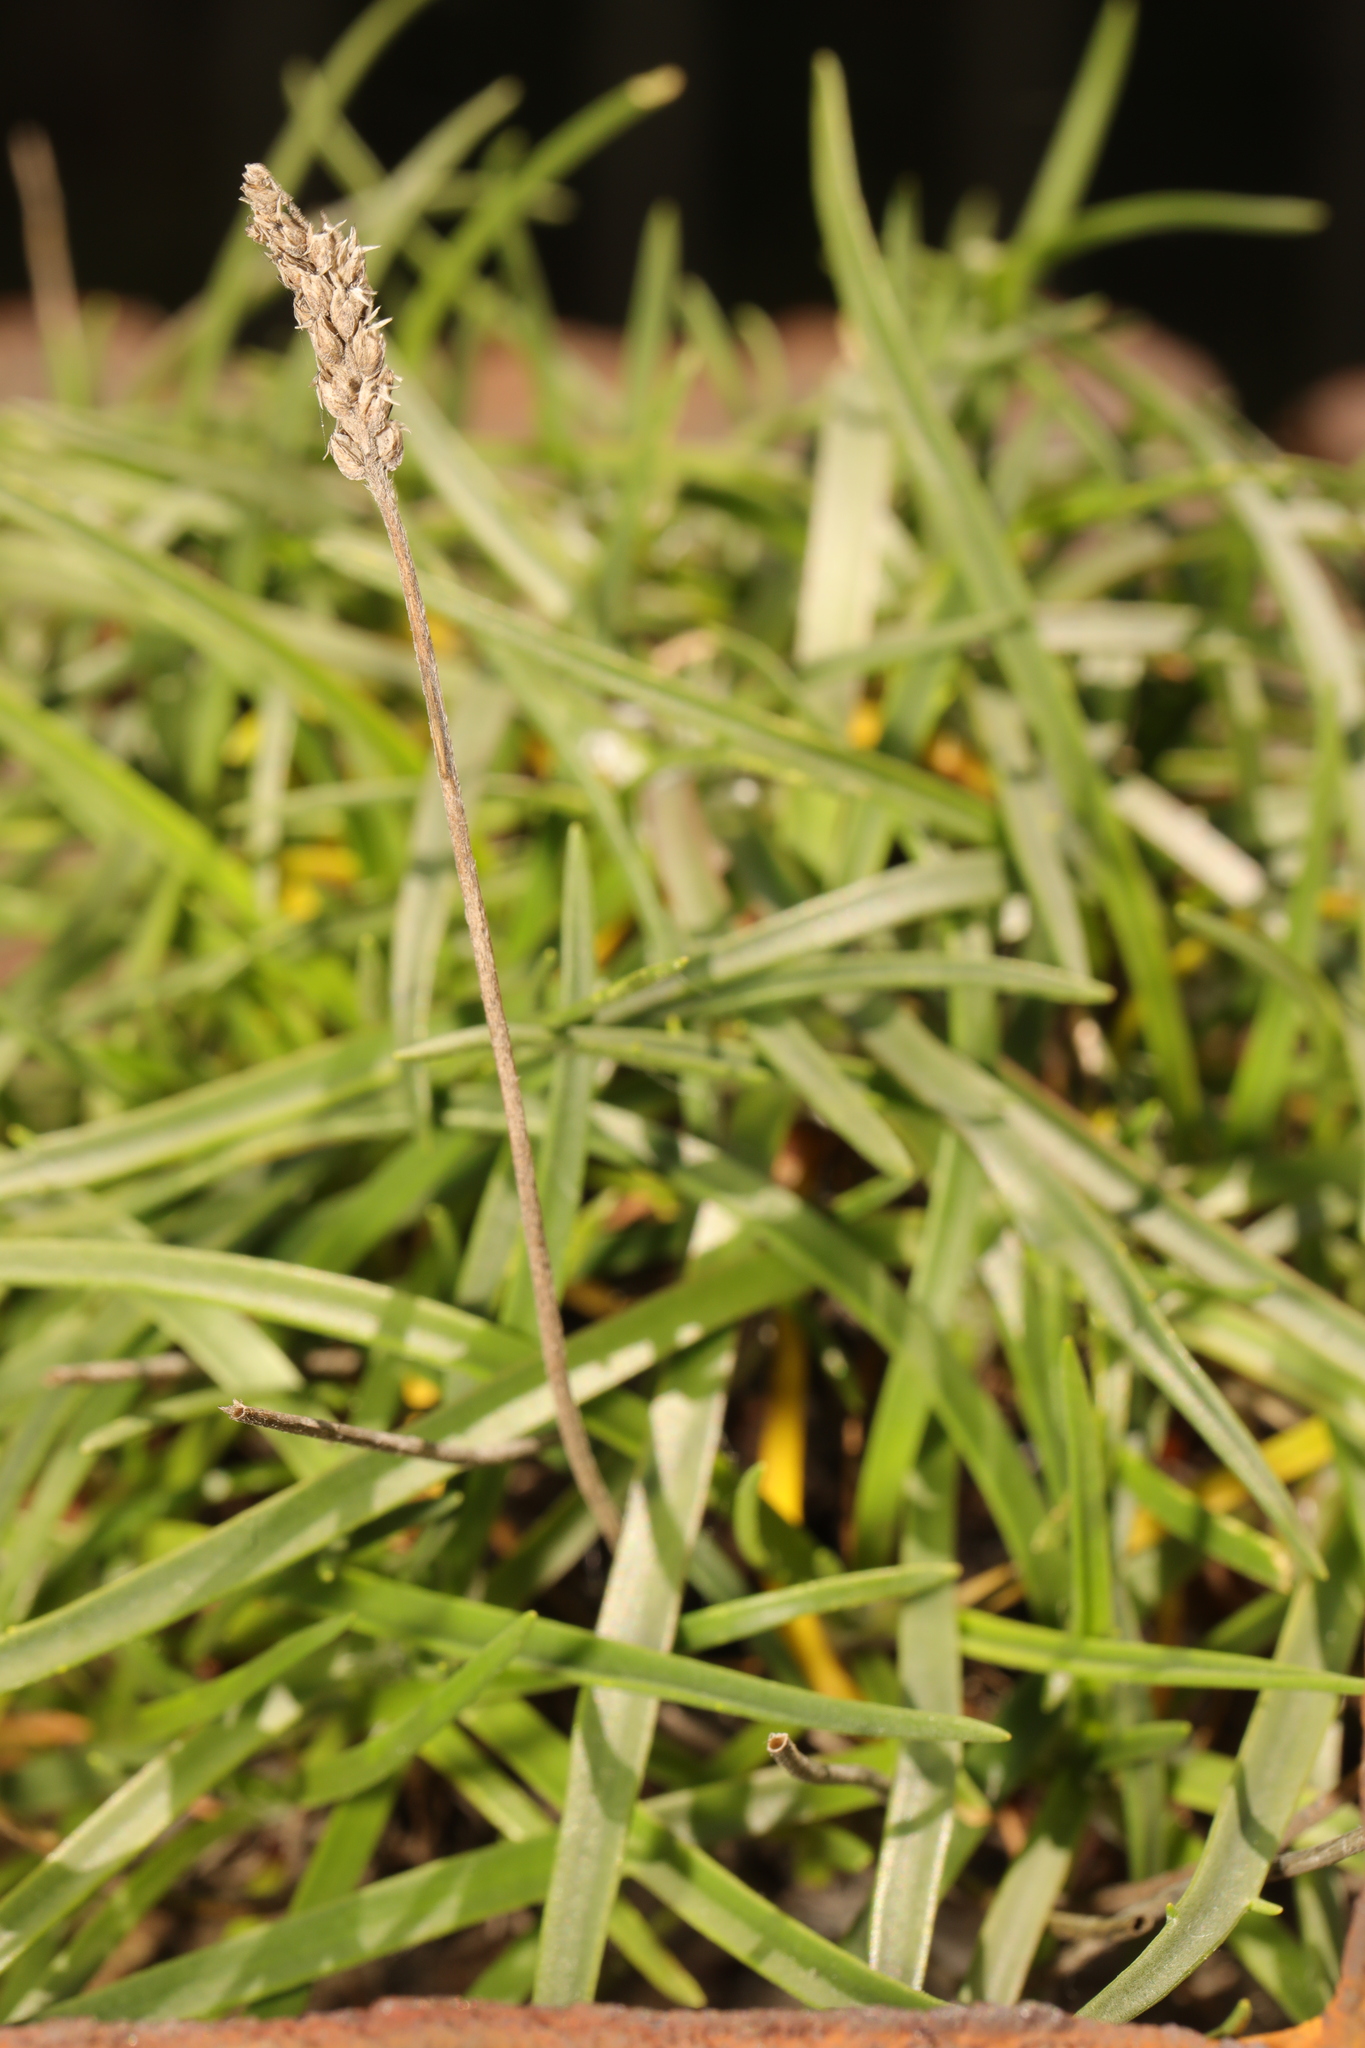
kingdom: Plantae
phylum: Tracheophyta
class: Magnoliopsida
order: Lamiales
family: Plantaginaceae
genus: Plantago
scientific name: Plantago maritima
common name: Sea plantain
